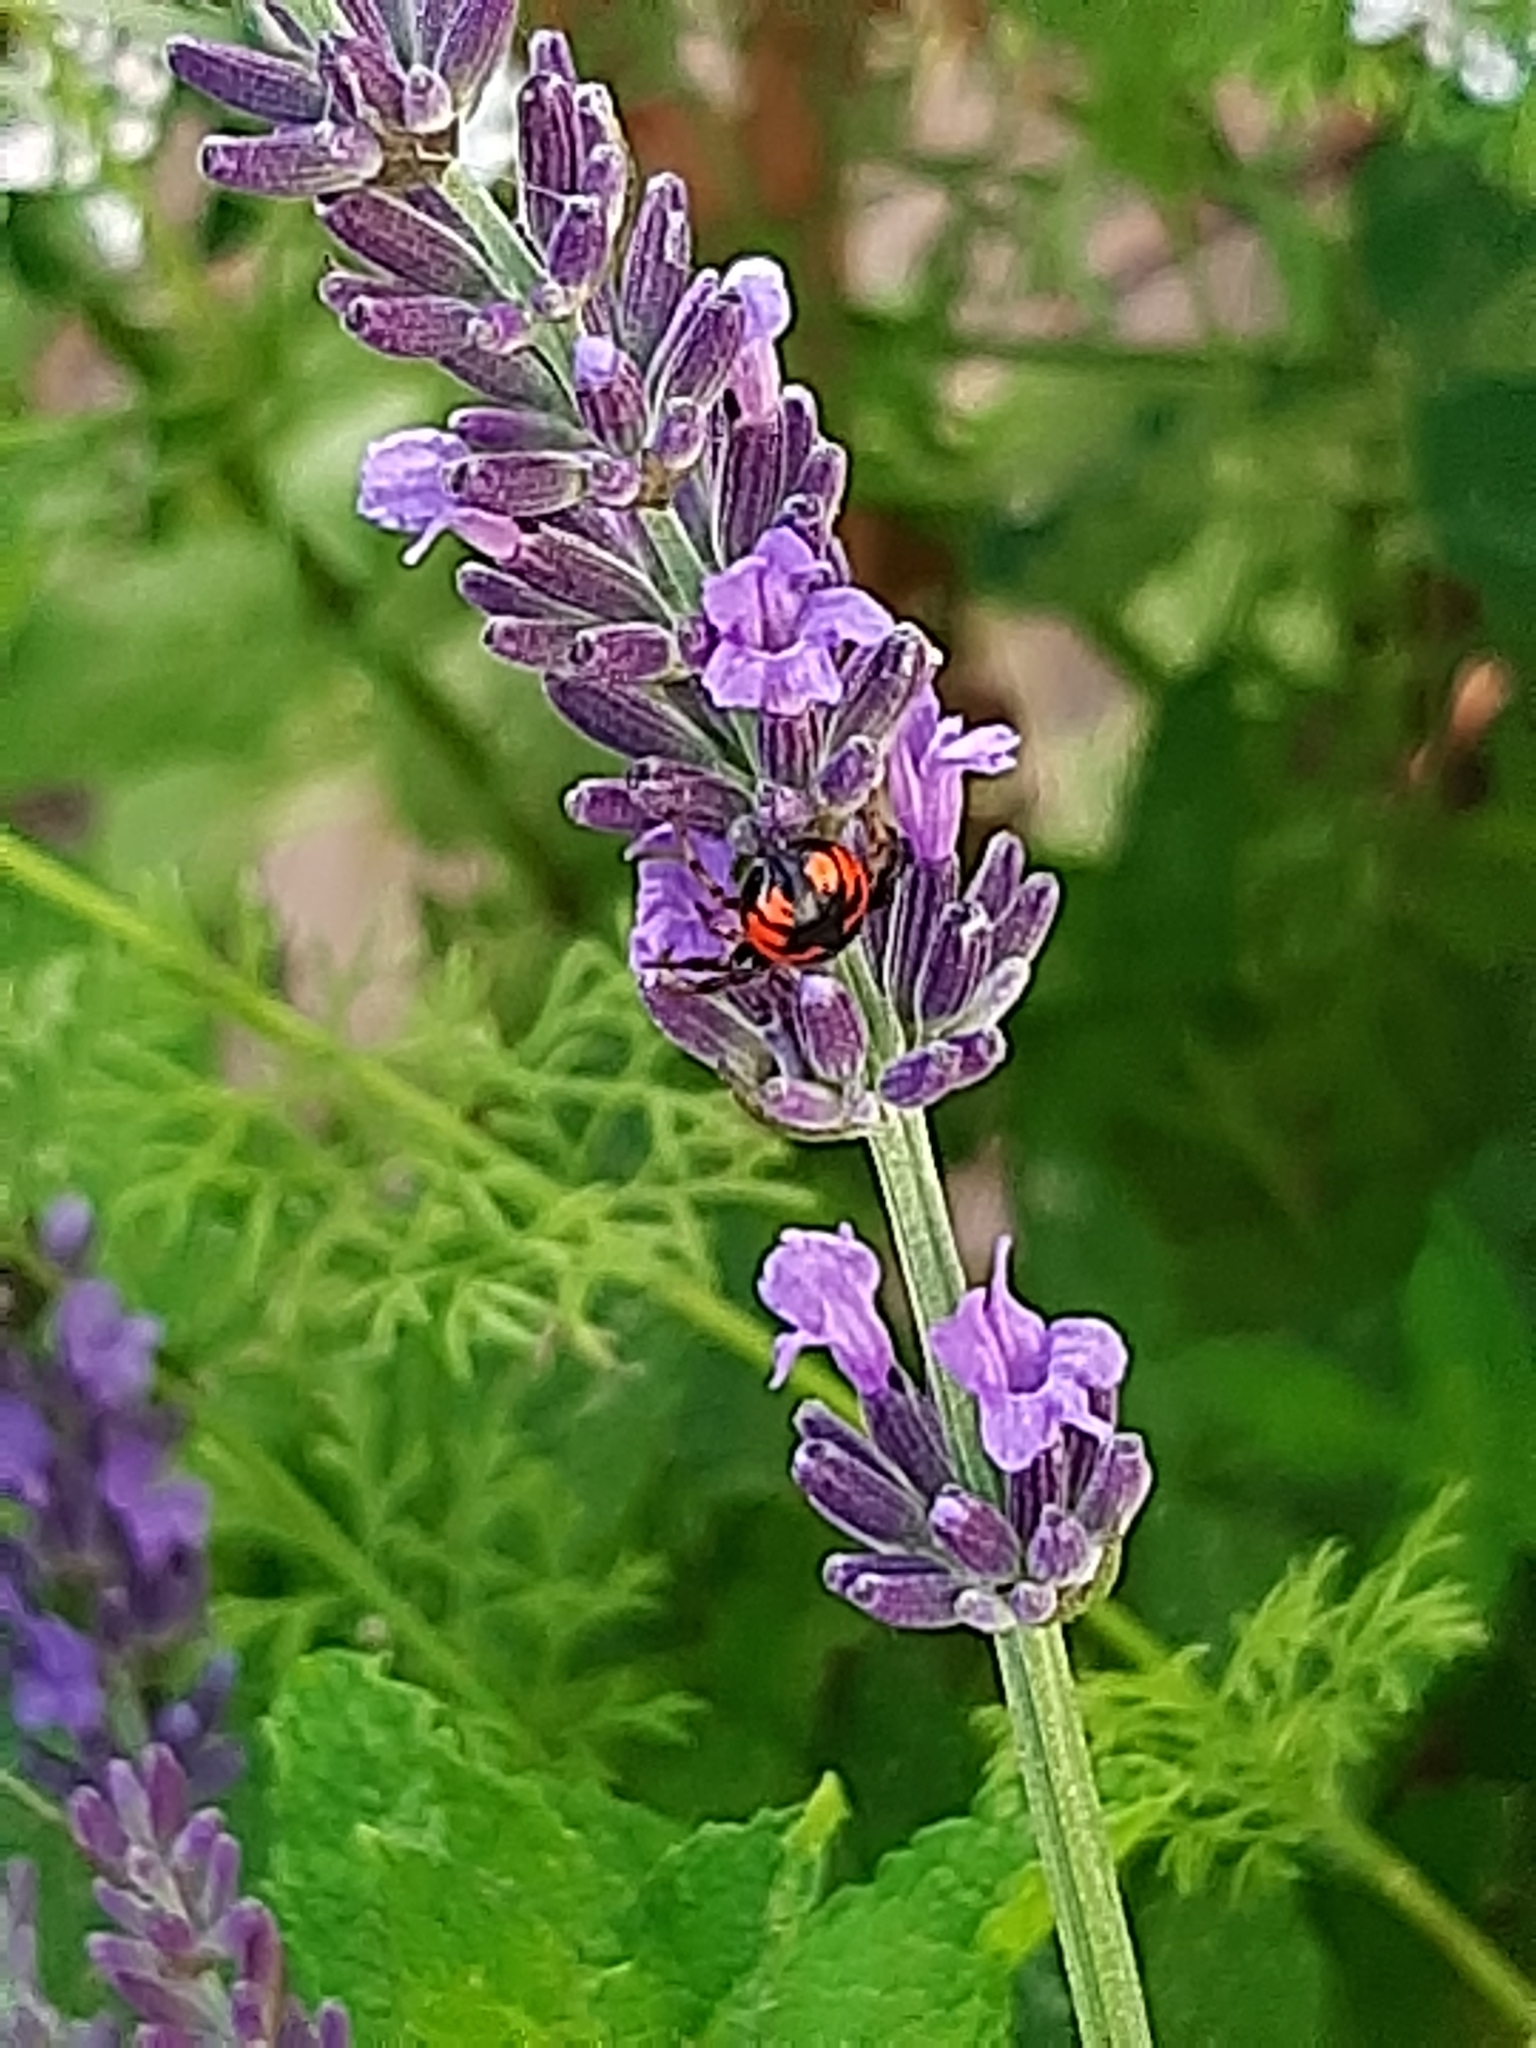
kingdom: Animalia
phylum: Arthropoda
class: Arachnida
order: Araneae
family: Thomisidae
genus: Synema
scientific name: Synema globosum
